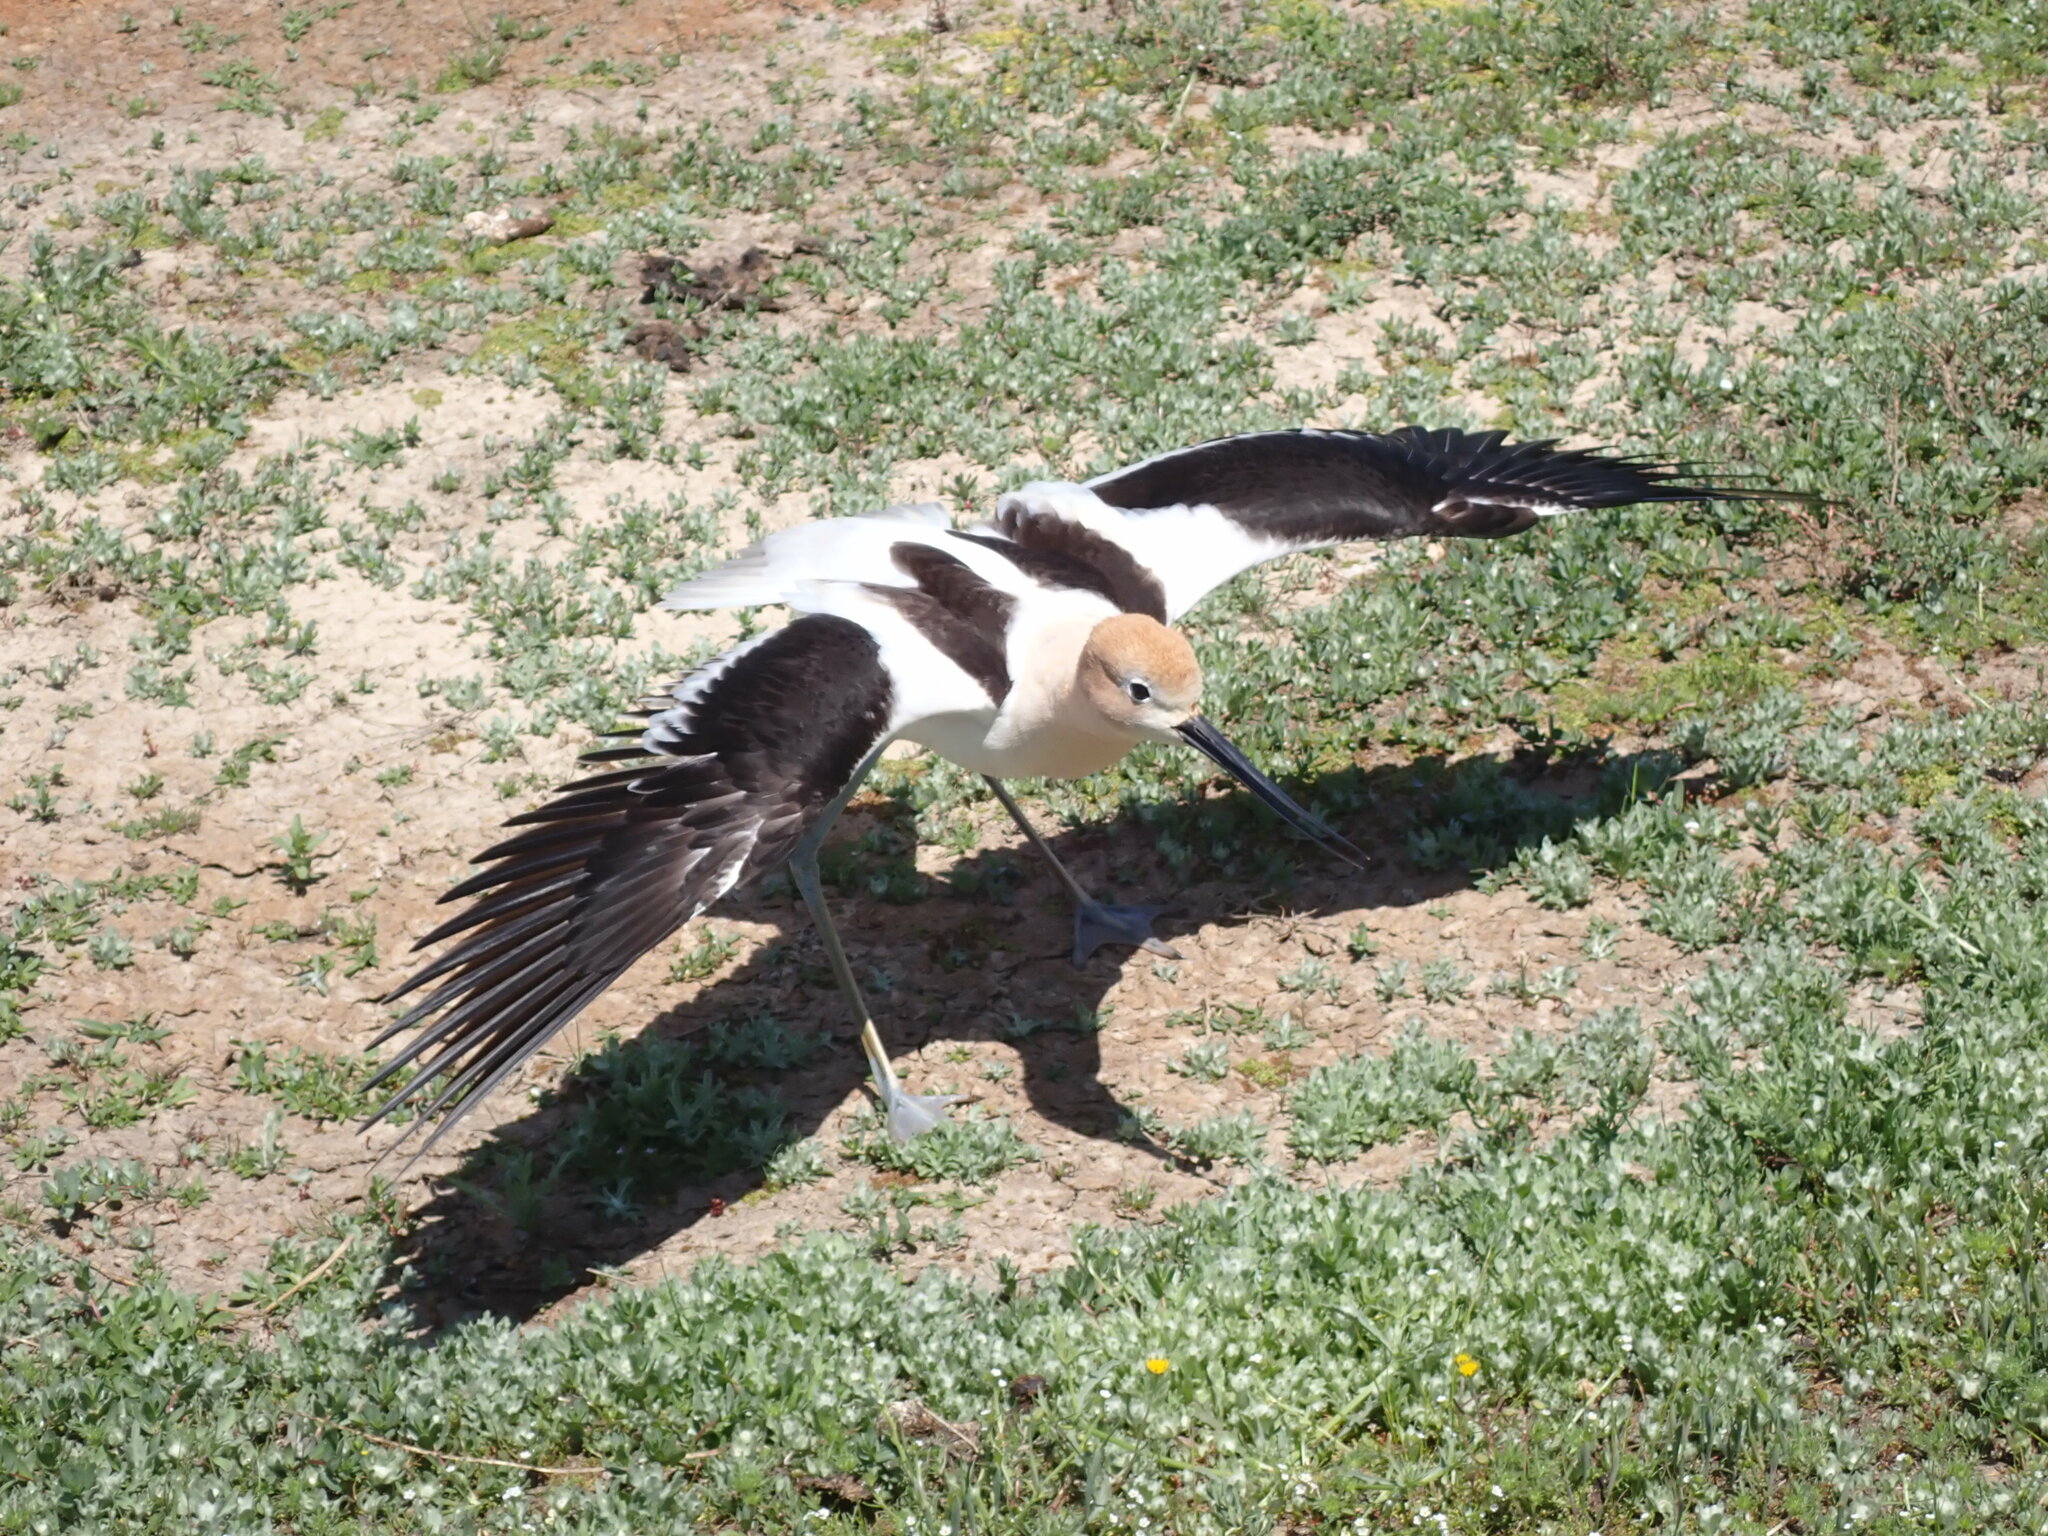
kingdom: Animalia
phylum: Chordata
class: Aves
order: Charadriiformes
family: Recurvirostridae
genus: Recurvirostra
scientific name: Recurvirostra americana
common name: American avocet
